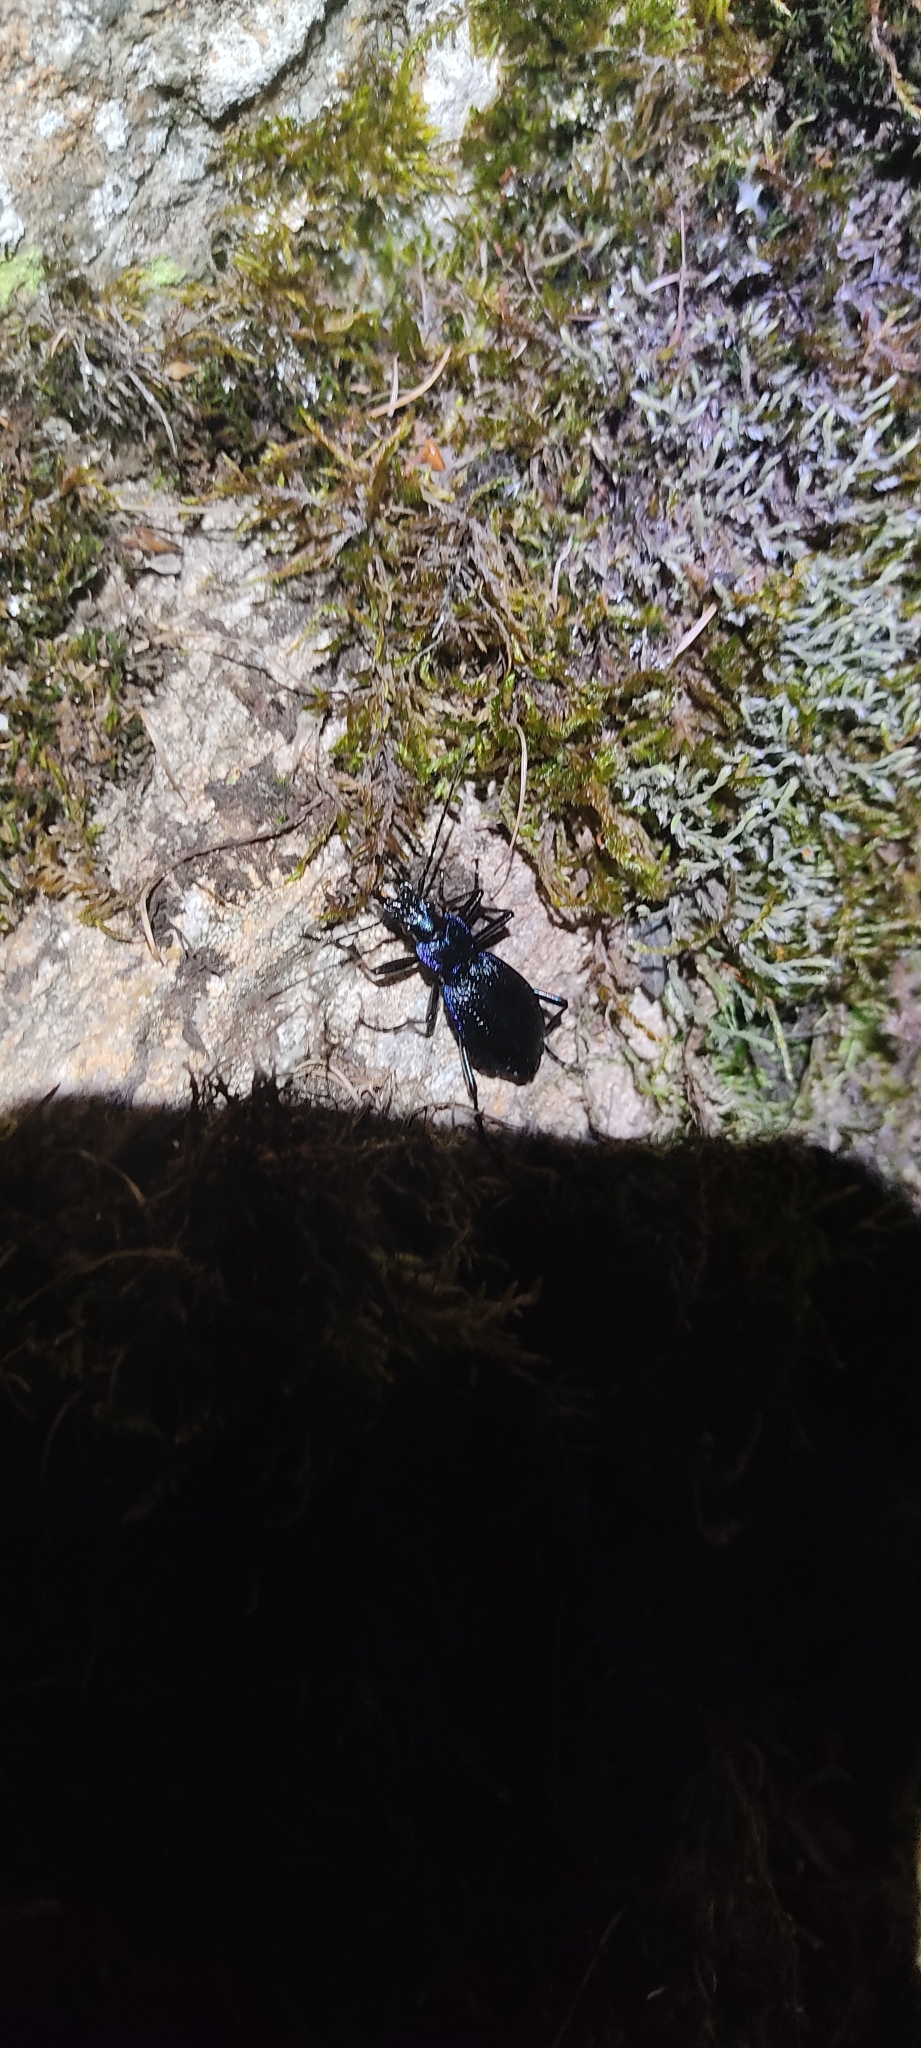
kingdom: Animalia
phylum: Arthropoda
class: Insecta
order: Coleoptera
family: Carabidae
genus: Carabus
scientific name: Carabus intricatus
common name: Blue ground beetle
